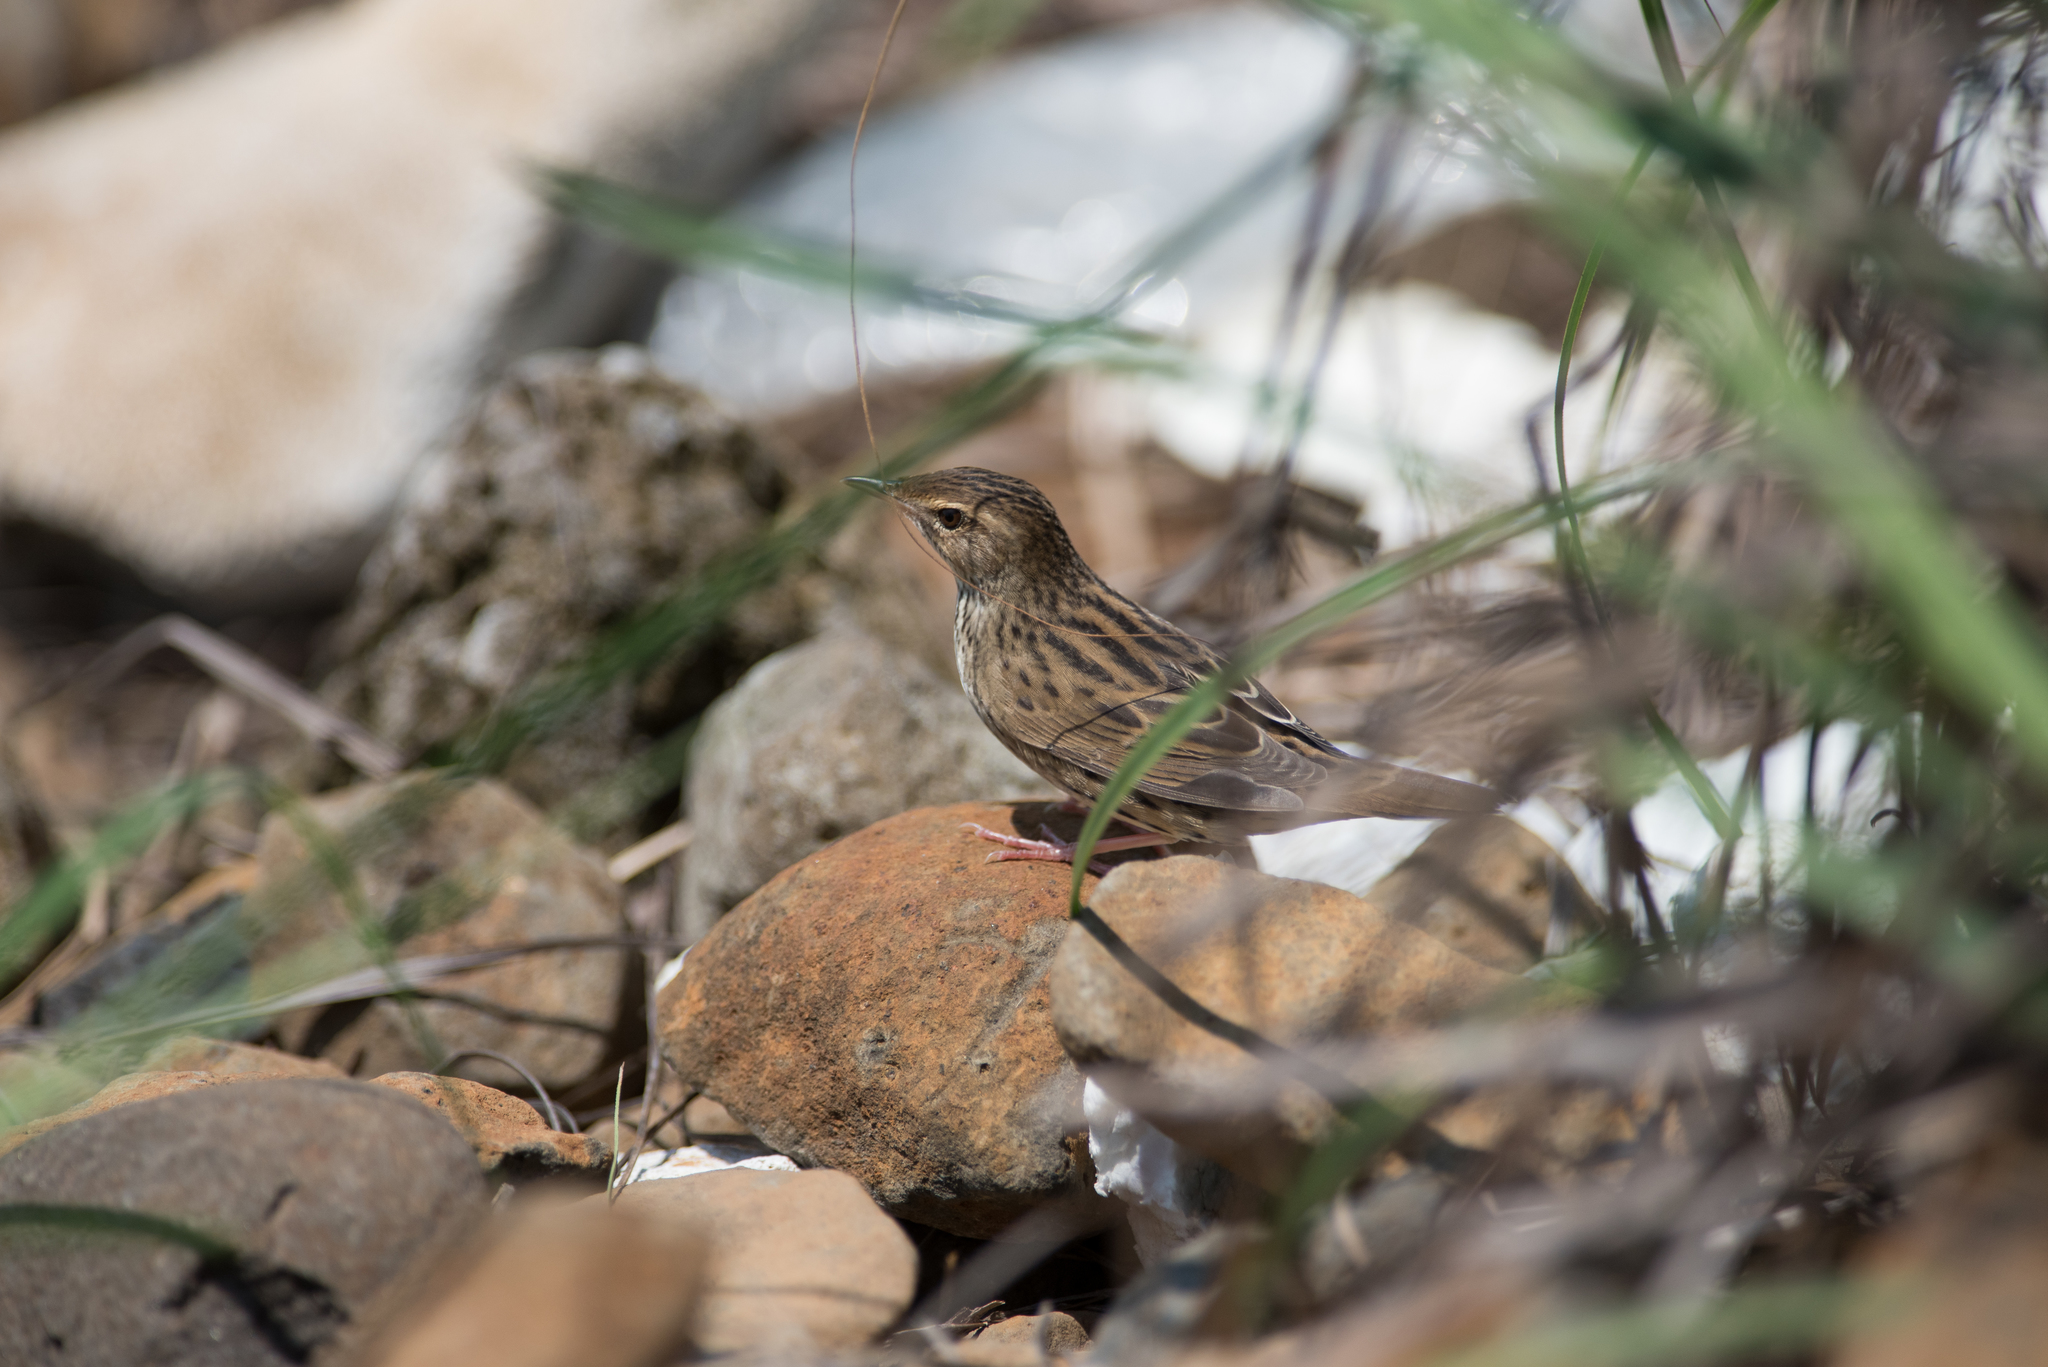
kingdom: Animalia
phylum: Chordata
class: Aves
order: Passeriformes
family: Locustellidae
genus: Locustella
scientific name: Locustella lanceolata
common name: Lanceolated warbler
